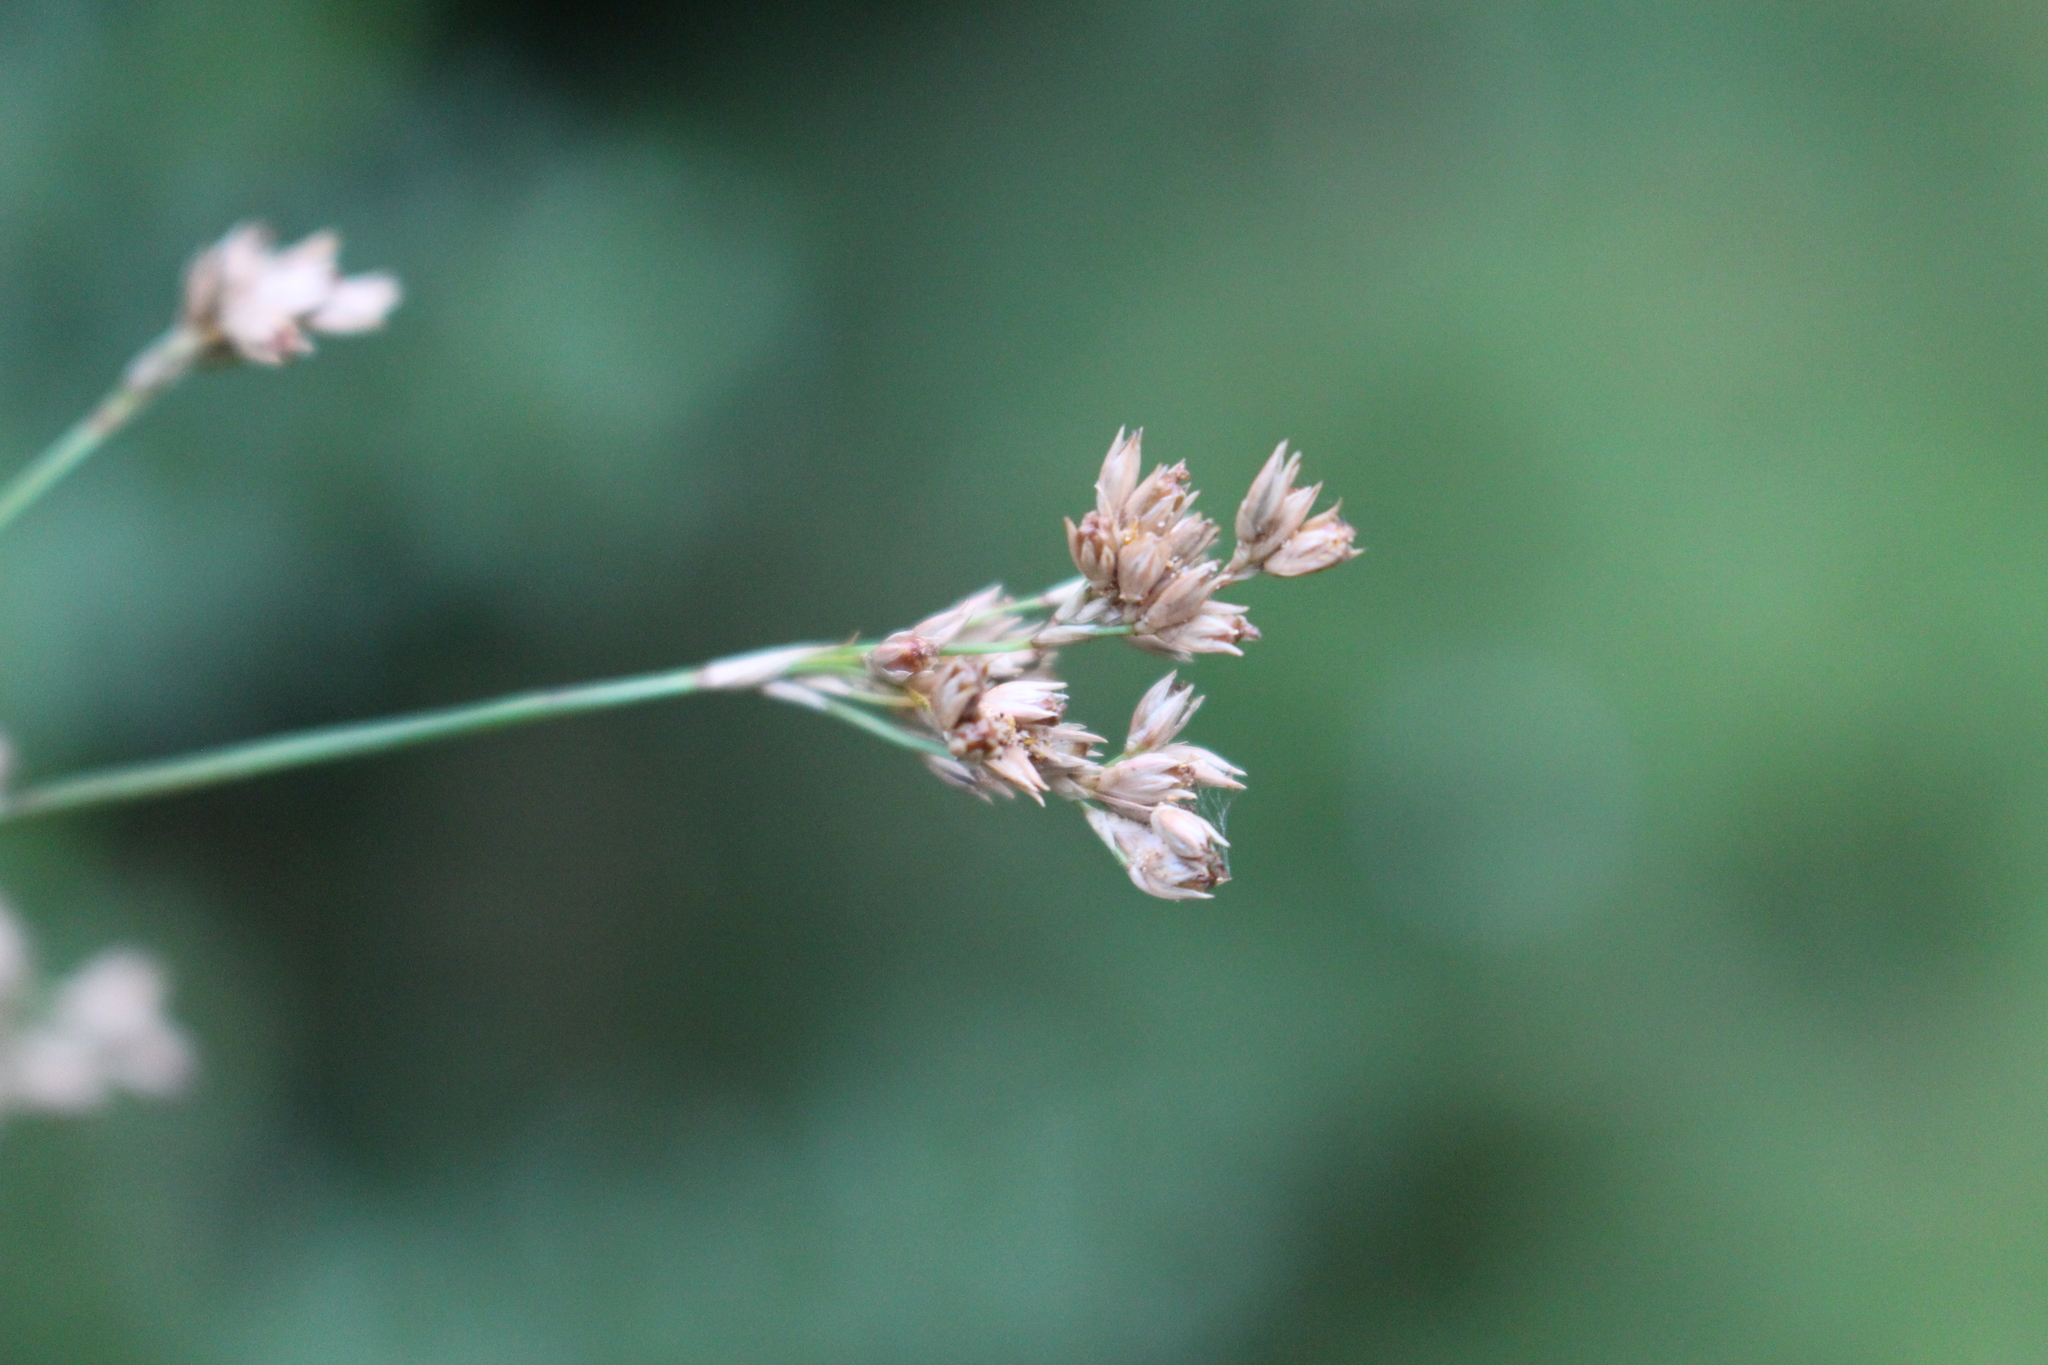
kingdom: Plantae
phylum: Tracheophyta
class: Liliopsida
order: Poales
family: Juncaceae
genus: Juncus
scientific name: Juncus australis
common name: Austral rush
